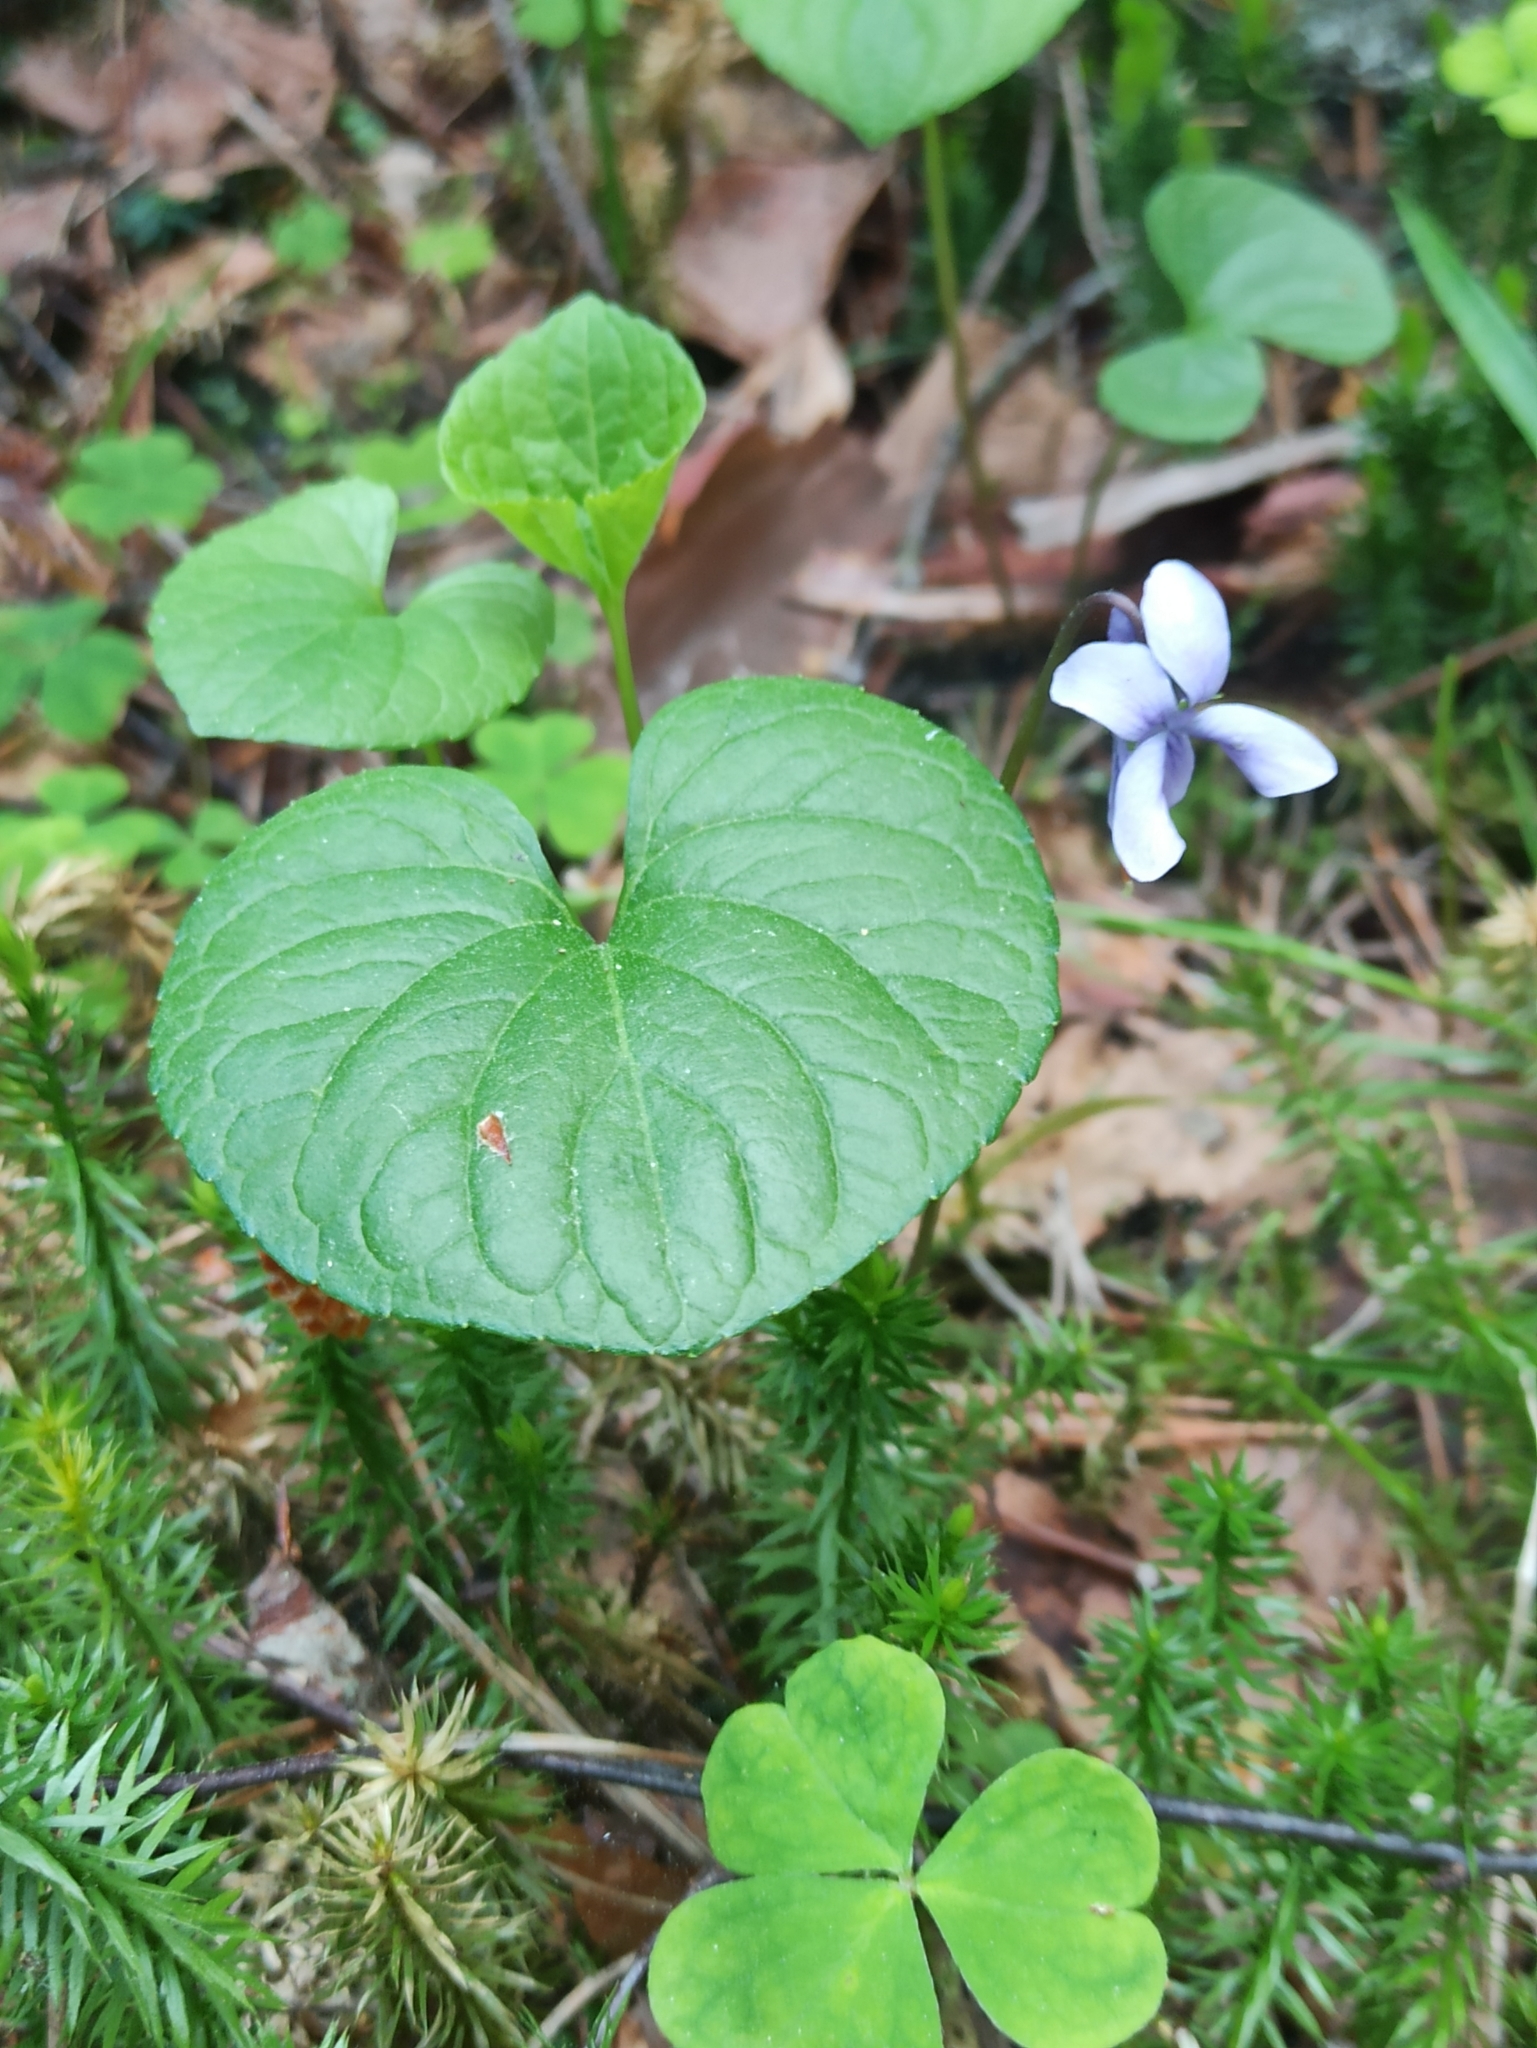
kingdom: Plantae
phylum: Tracheophyta
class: Magnoliopsida
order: Malpighiales
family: Violaceae
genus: Viola
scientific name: Viola palustris
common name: Marsh violet
